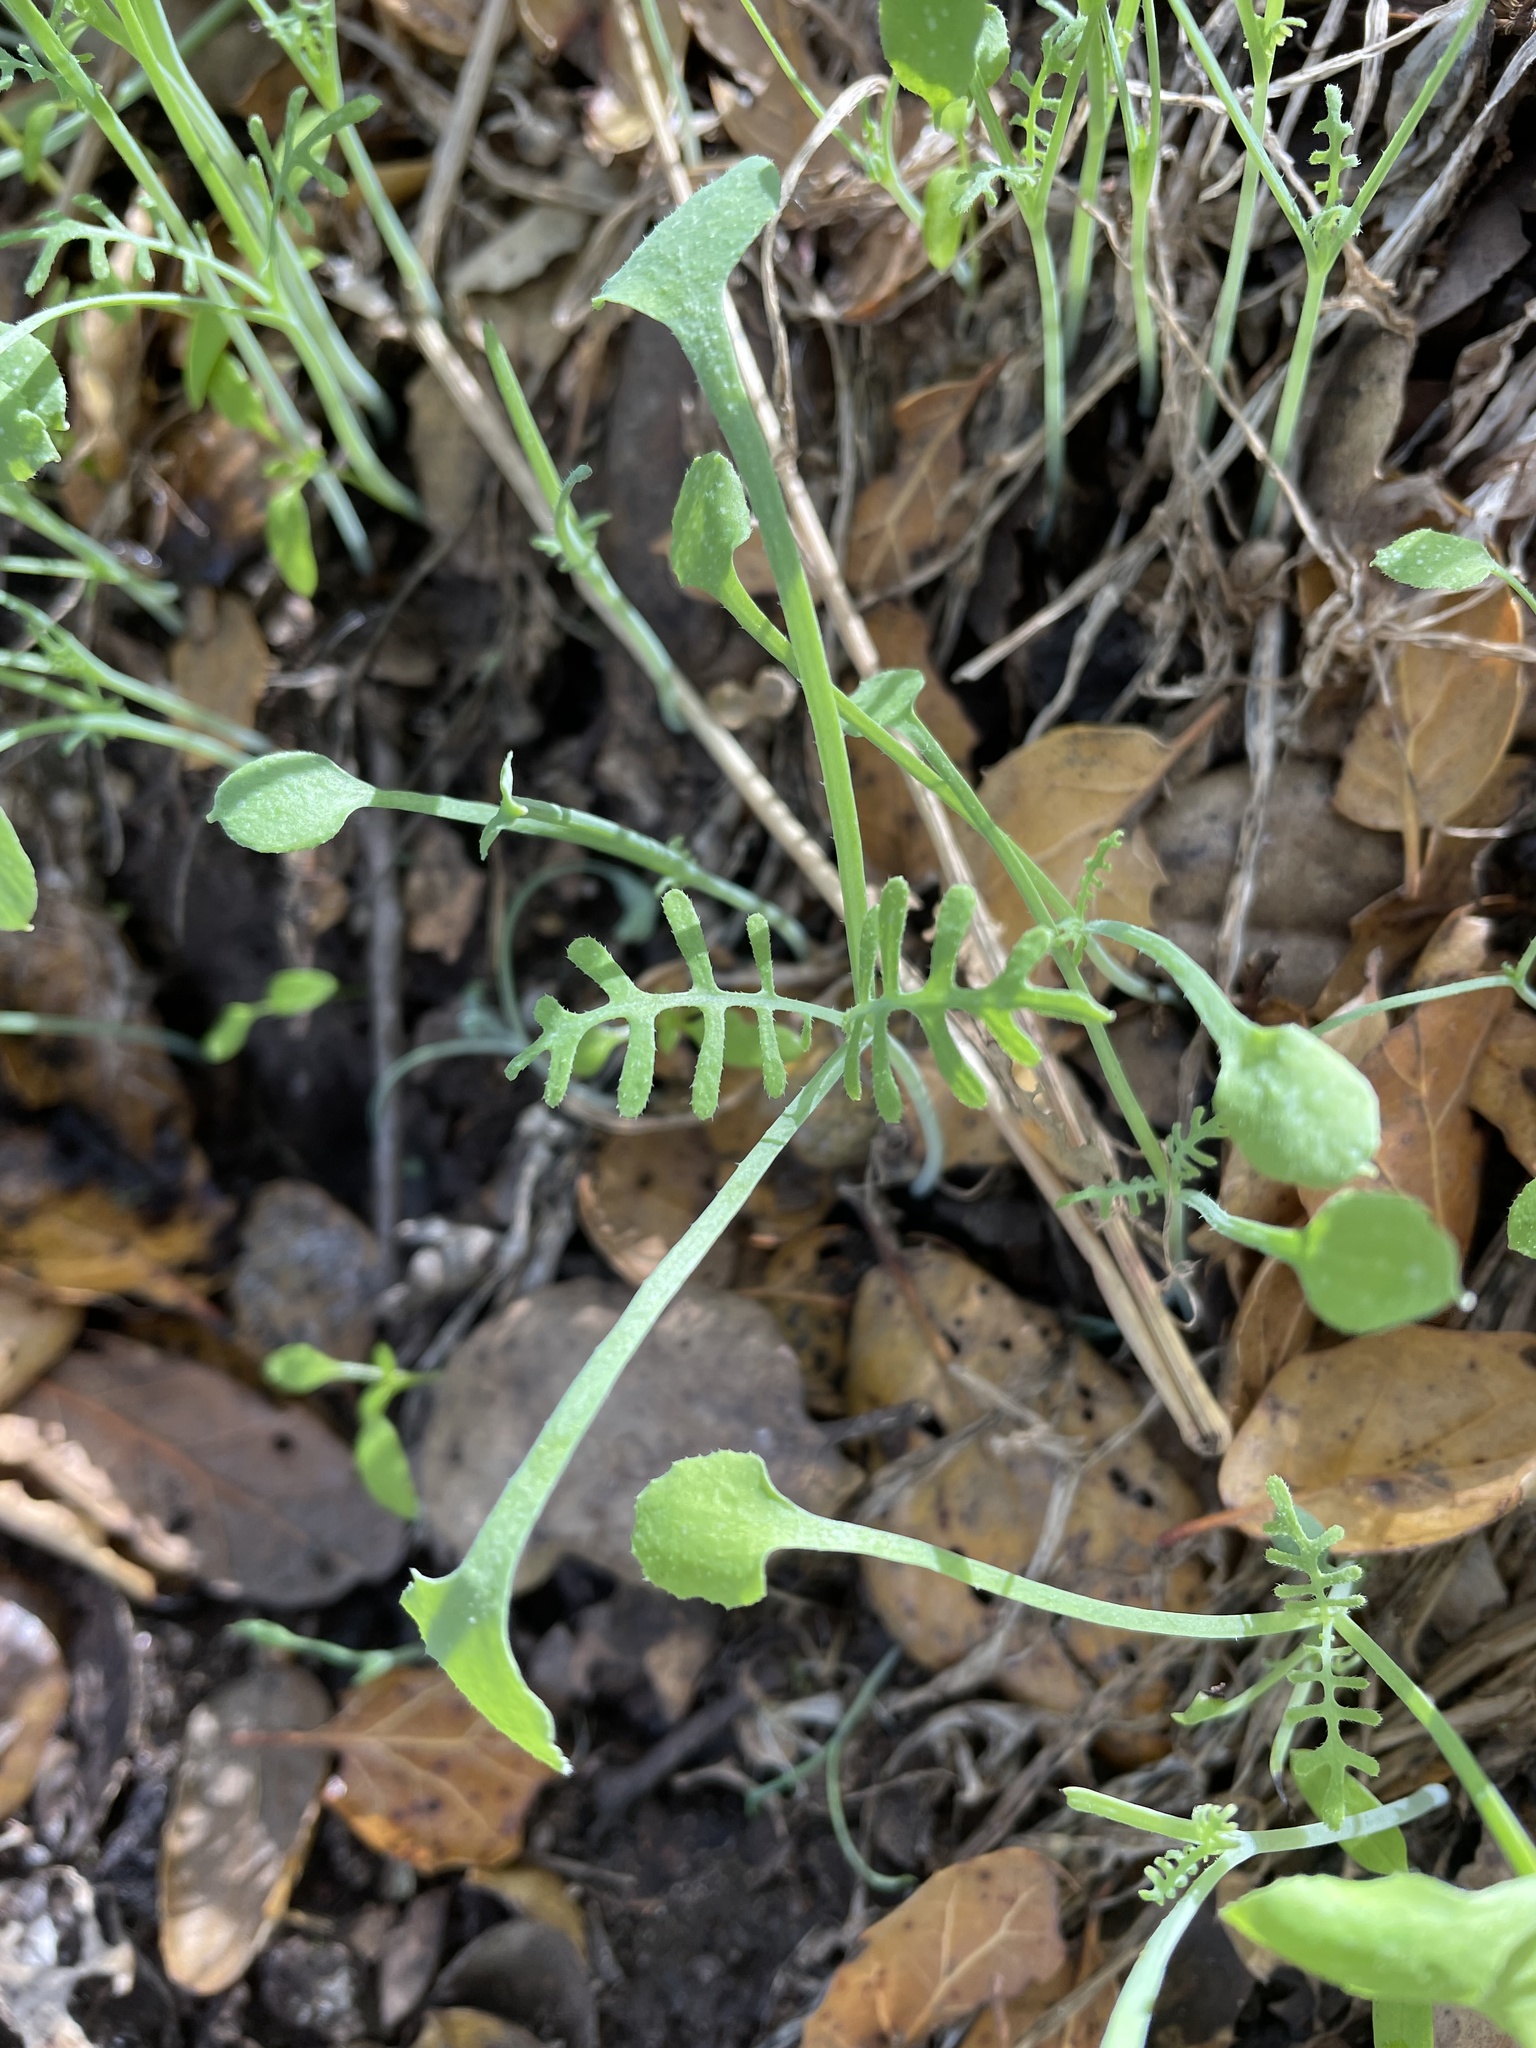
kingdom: Plantae
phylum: Tracheophyta
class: Magnoliopsida
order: Boraginales
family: Hydrophyllaceae
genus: Pholistoma
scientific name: Pholistoma membranaceum
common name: White fiesta-flower
